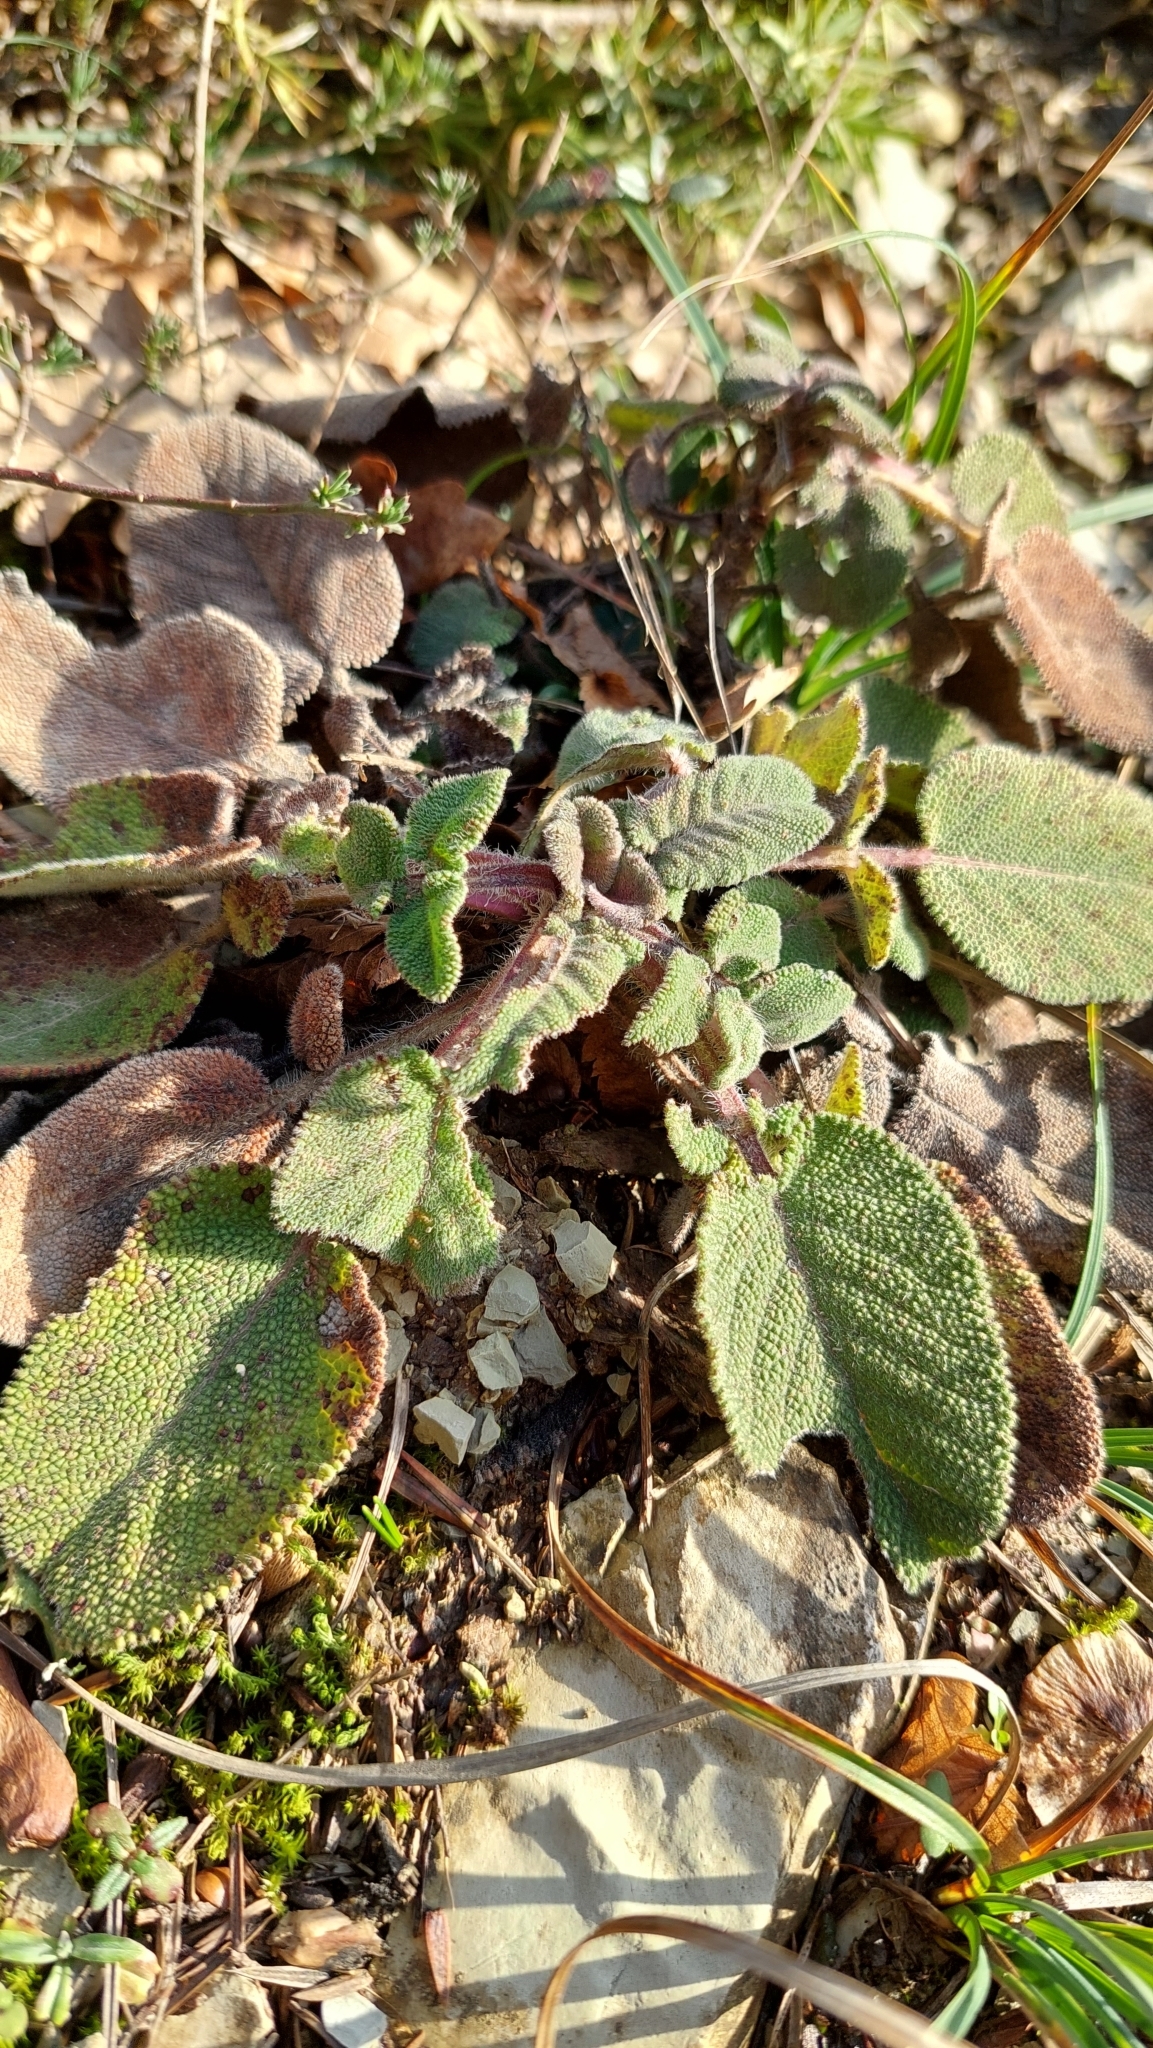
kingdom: Plantae
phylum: Tracheophyta
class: Magnoliopsida
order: Lamiales
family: Lamiaceae
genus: Salvia
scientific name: Salvia ringens
